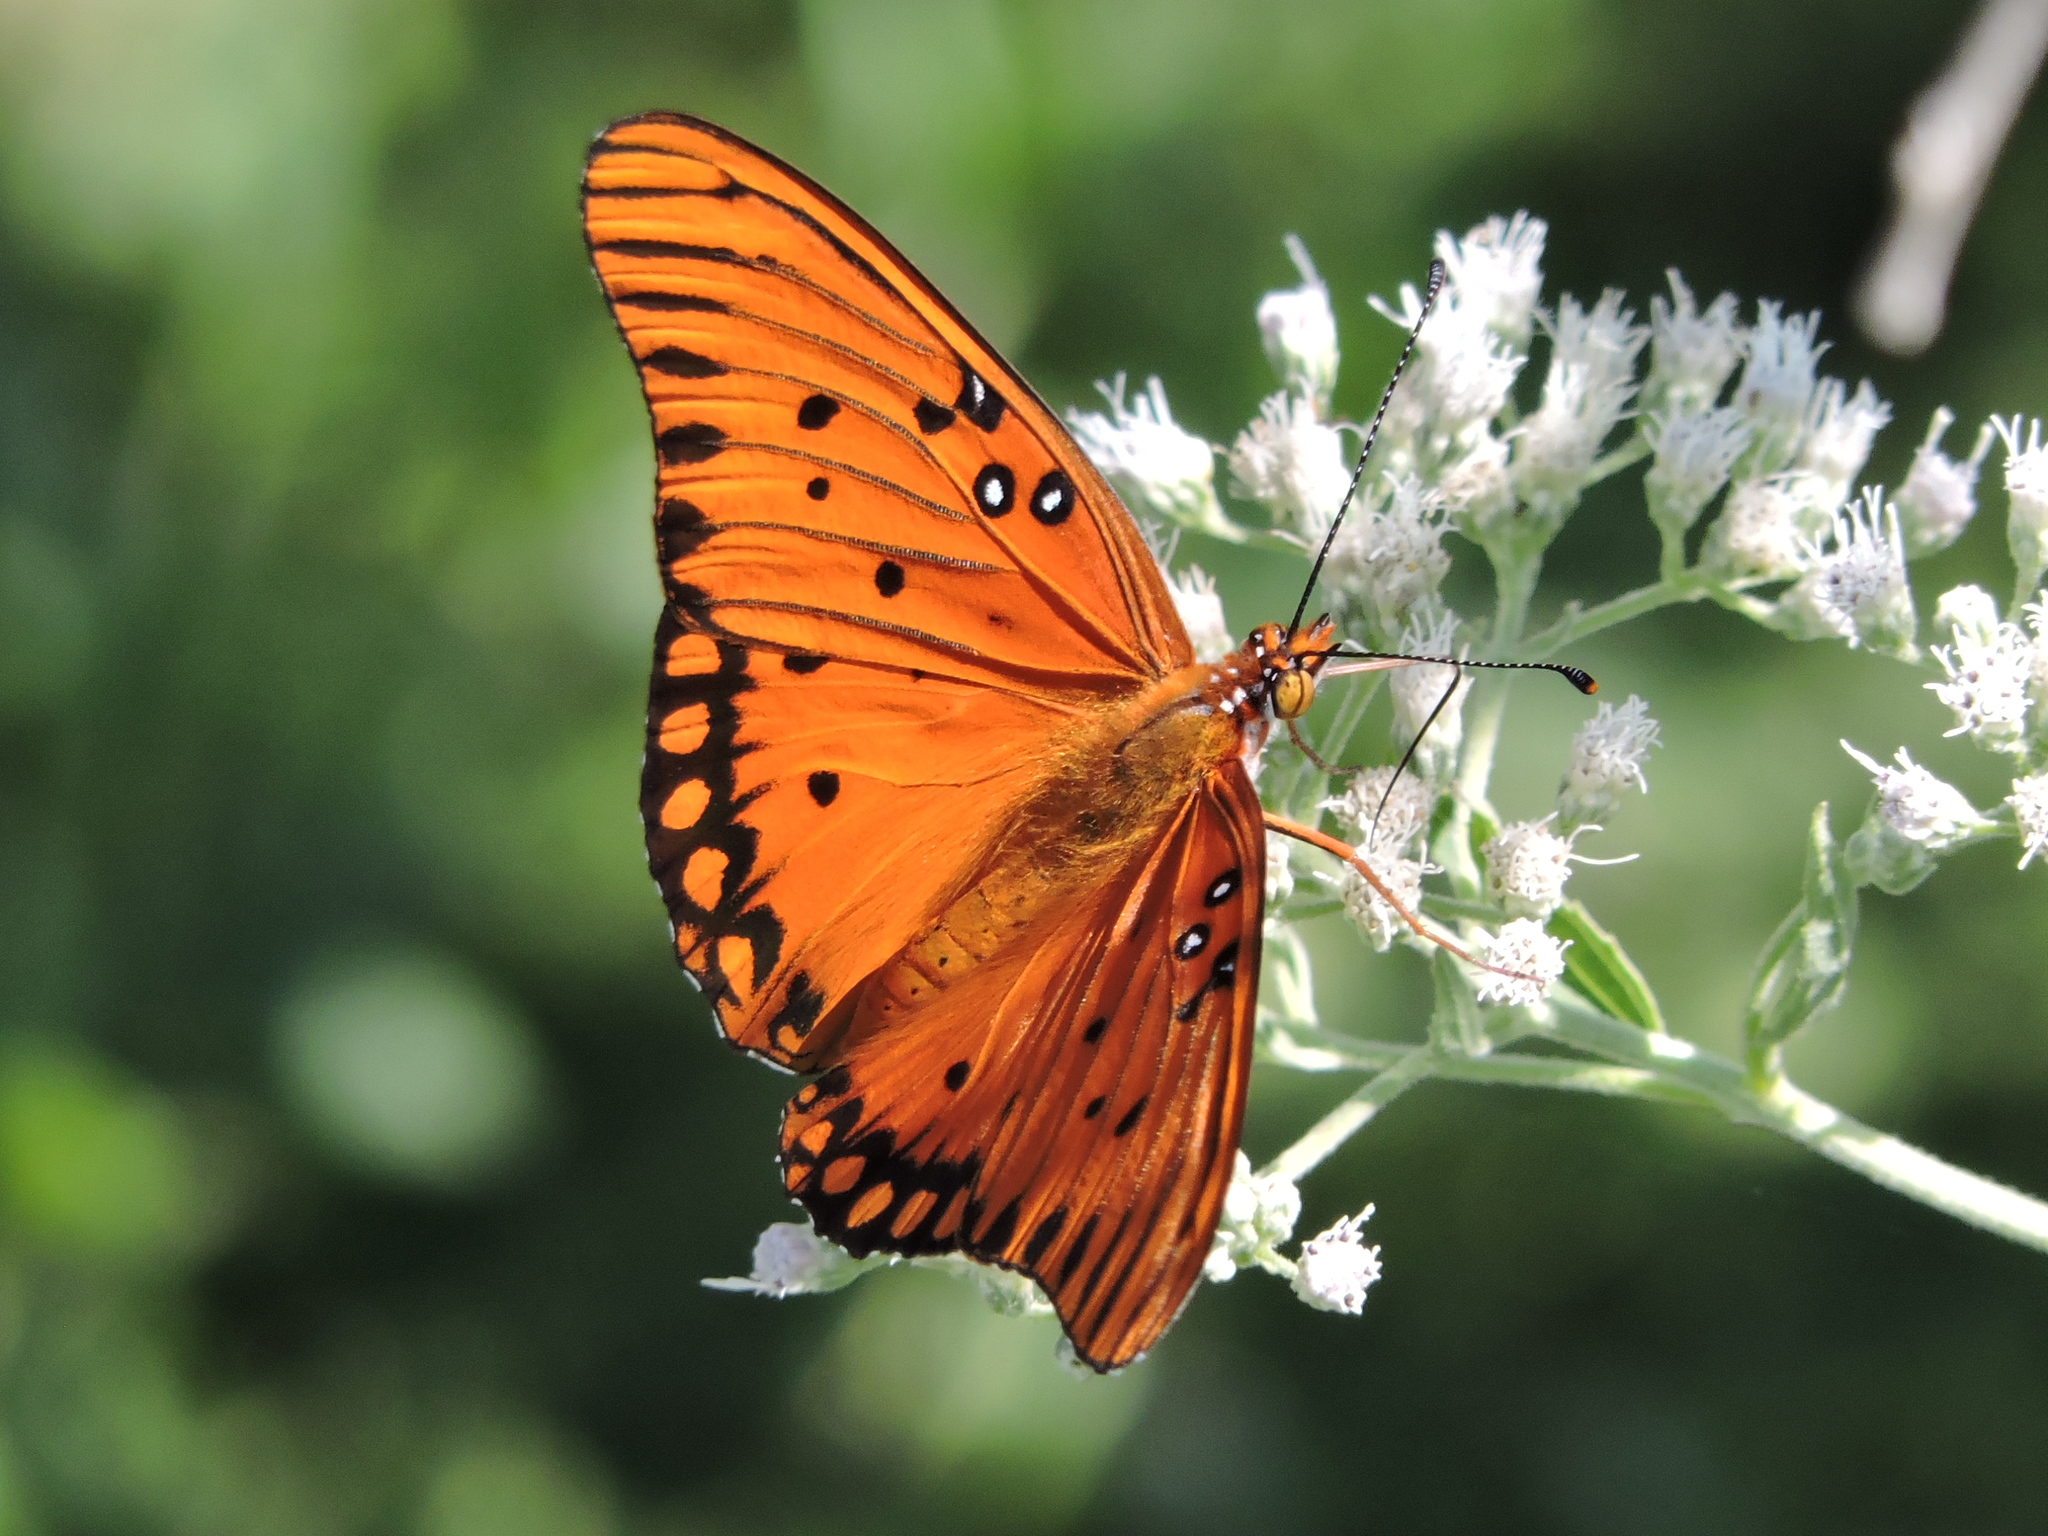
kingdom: Animalia
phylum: Arthropoda
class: Insecta
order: Lepidoptera
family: Nymphalidae
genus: Dione
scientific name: Dione vanillae
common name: Gulf fritillary
